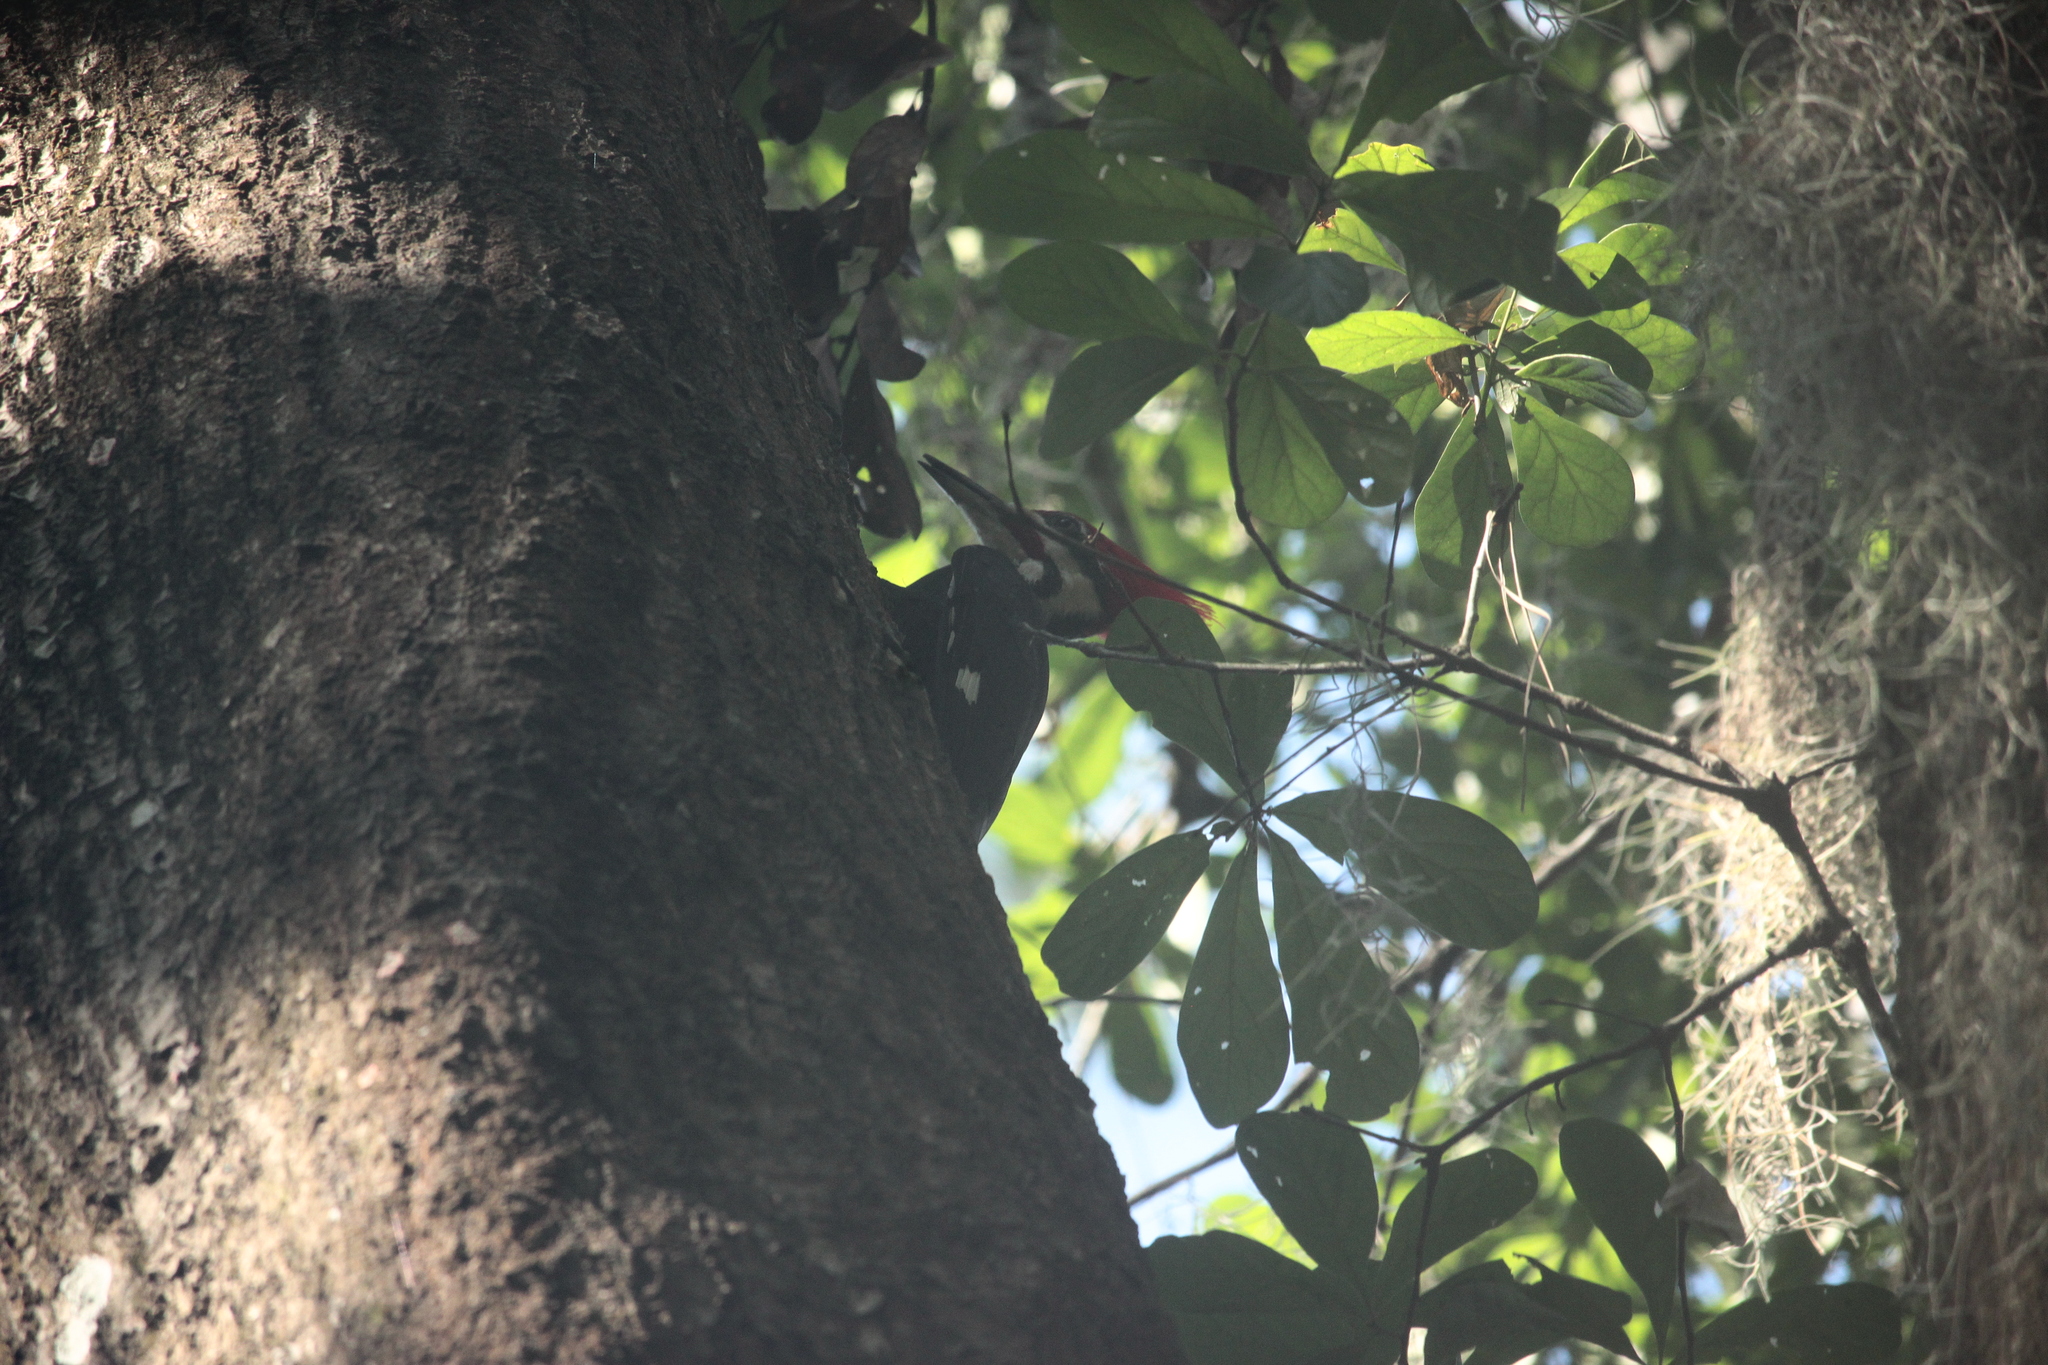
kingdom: Animalia
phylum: Chordata
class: Aves
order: Piciformes
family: Picidae
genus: Dryocopus
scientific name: Dryocopus pileatus
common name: Pileated woodpecker
